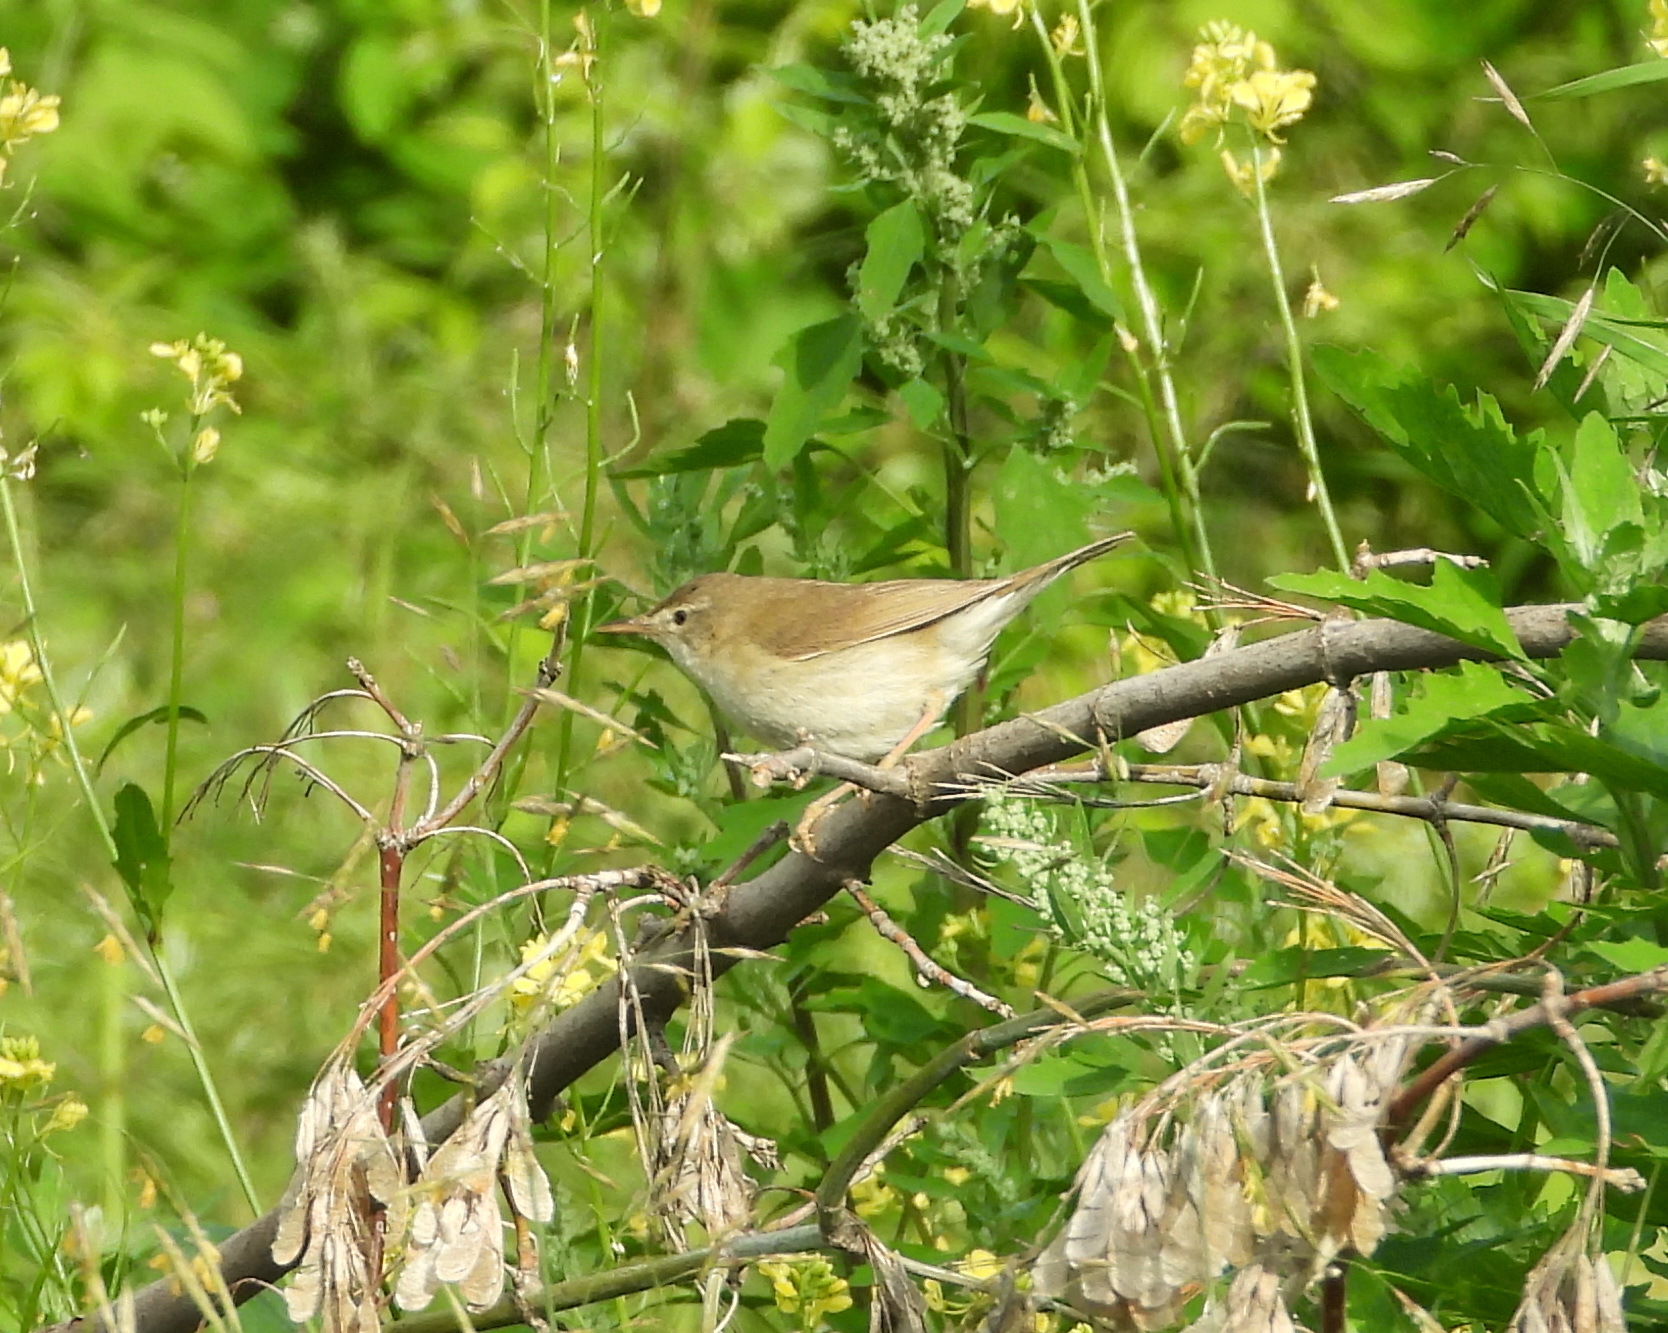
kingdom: Animalia
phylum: Chordata
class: Aves
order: Passeriformes
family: Acrocephalidae
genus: Acrocephalus
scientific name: Acrocephalus dumetorum
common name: Blyth's reed warbler
